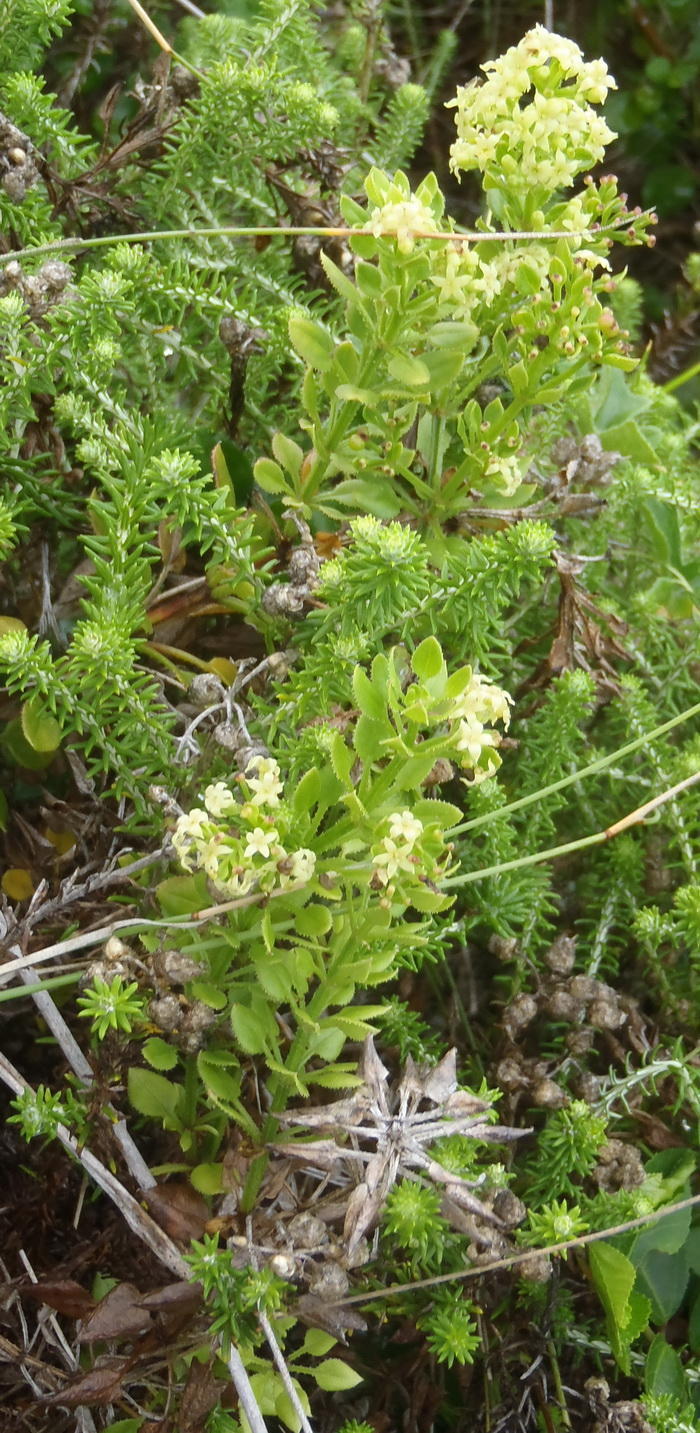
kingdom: Plantae
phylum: Tracheophyta
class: Magnoliopsida
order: Gentianales
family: Rubiaceae
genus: Rubia
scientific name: Rubia petiolaris
